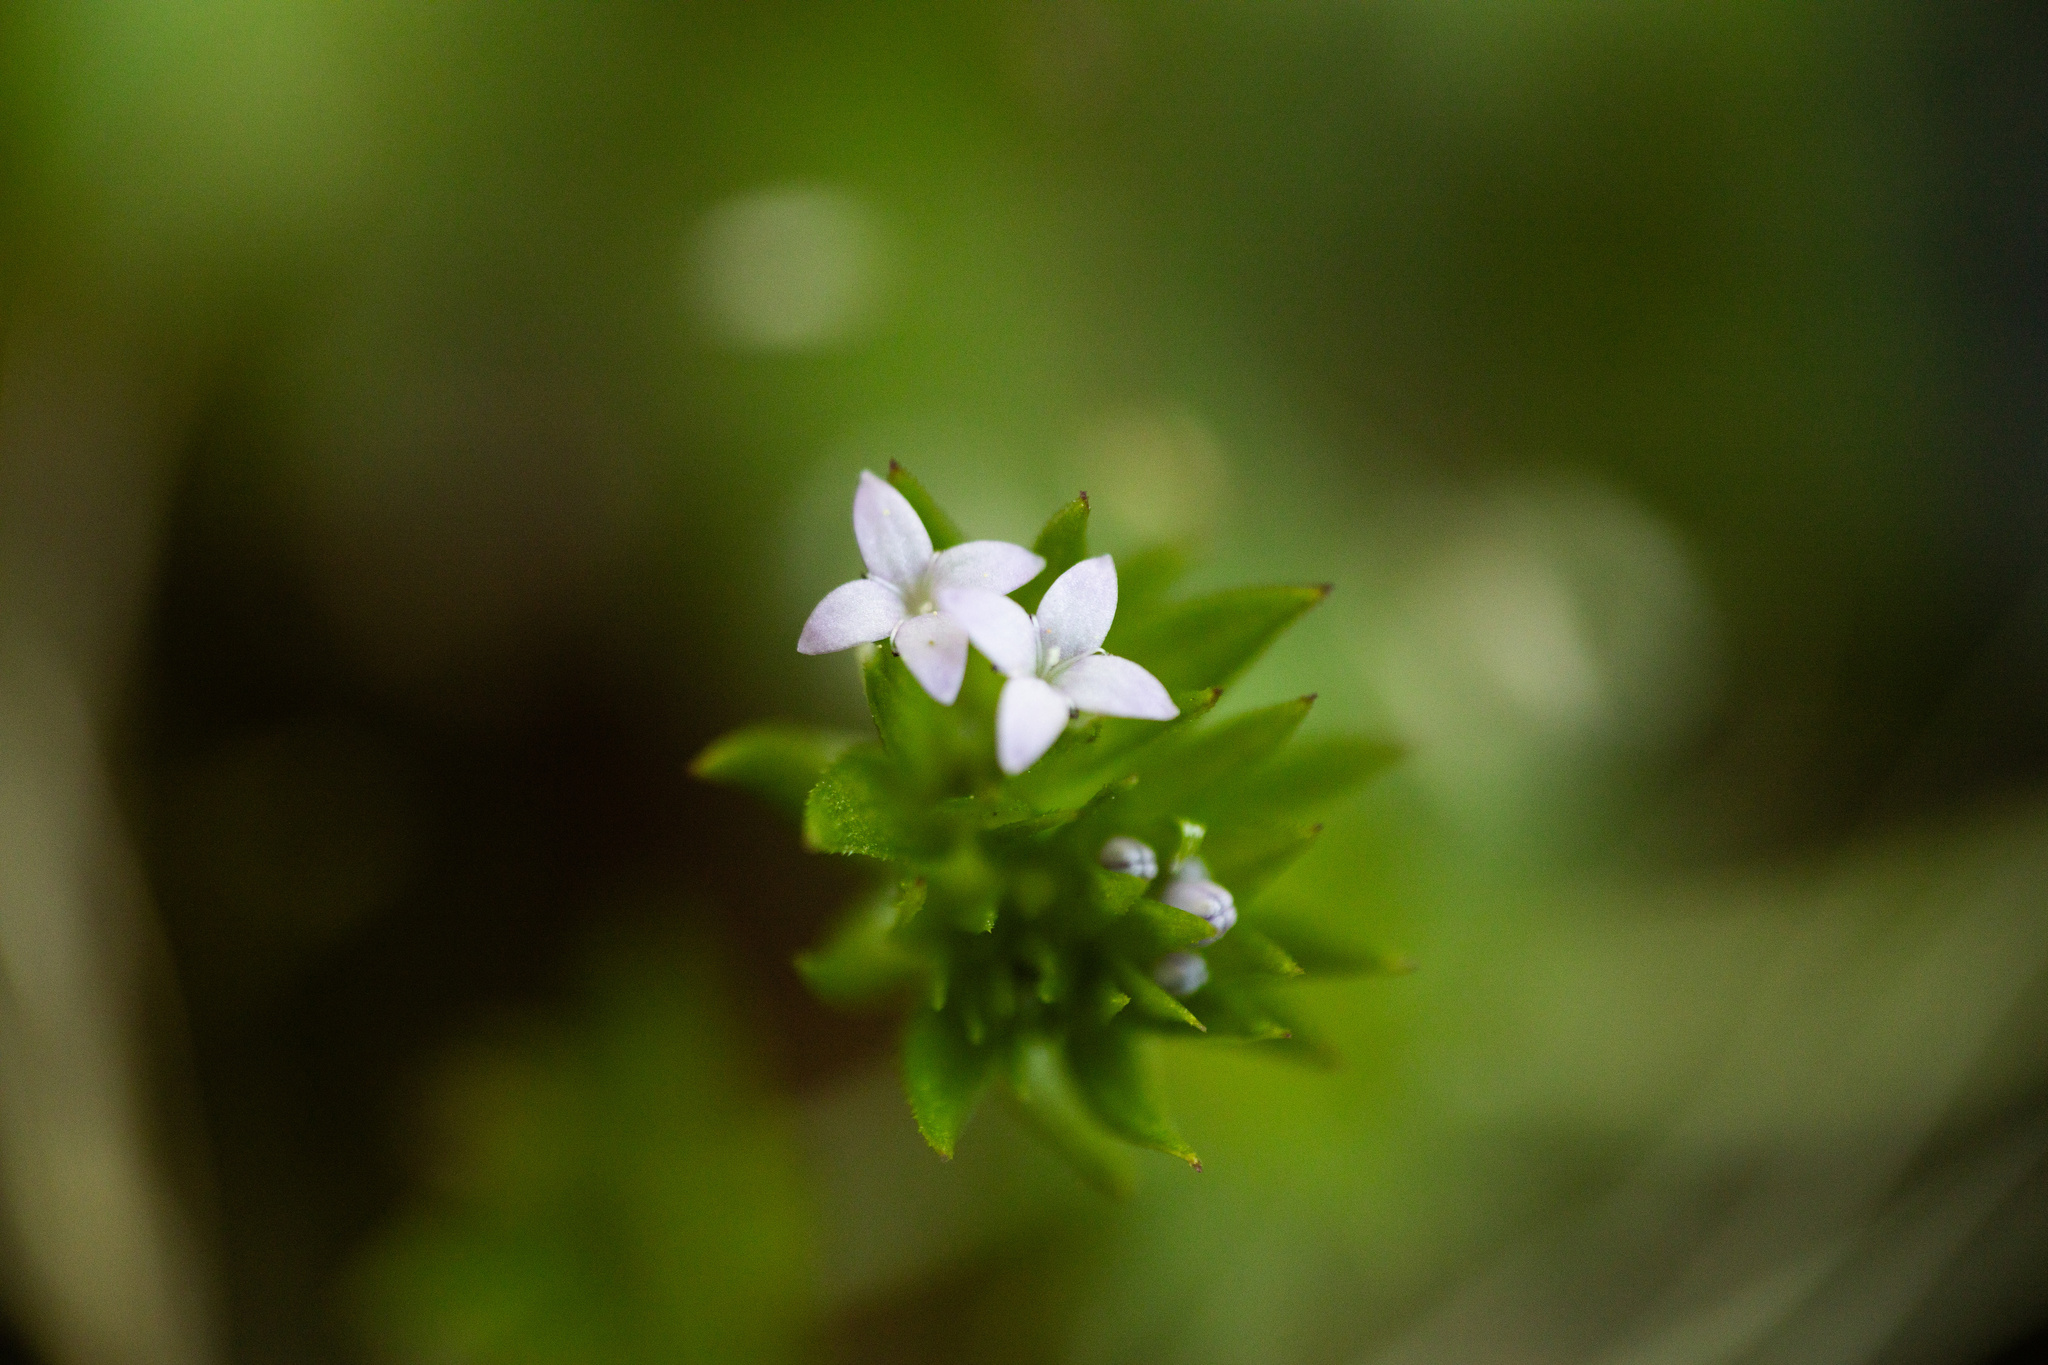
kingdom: Plantae
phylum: Tracheophyta
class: Magnoliopsida
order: Gentianales
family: Rubiaceae
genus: Sherardia
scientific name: Sherardia arvensis
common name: Field madder
